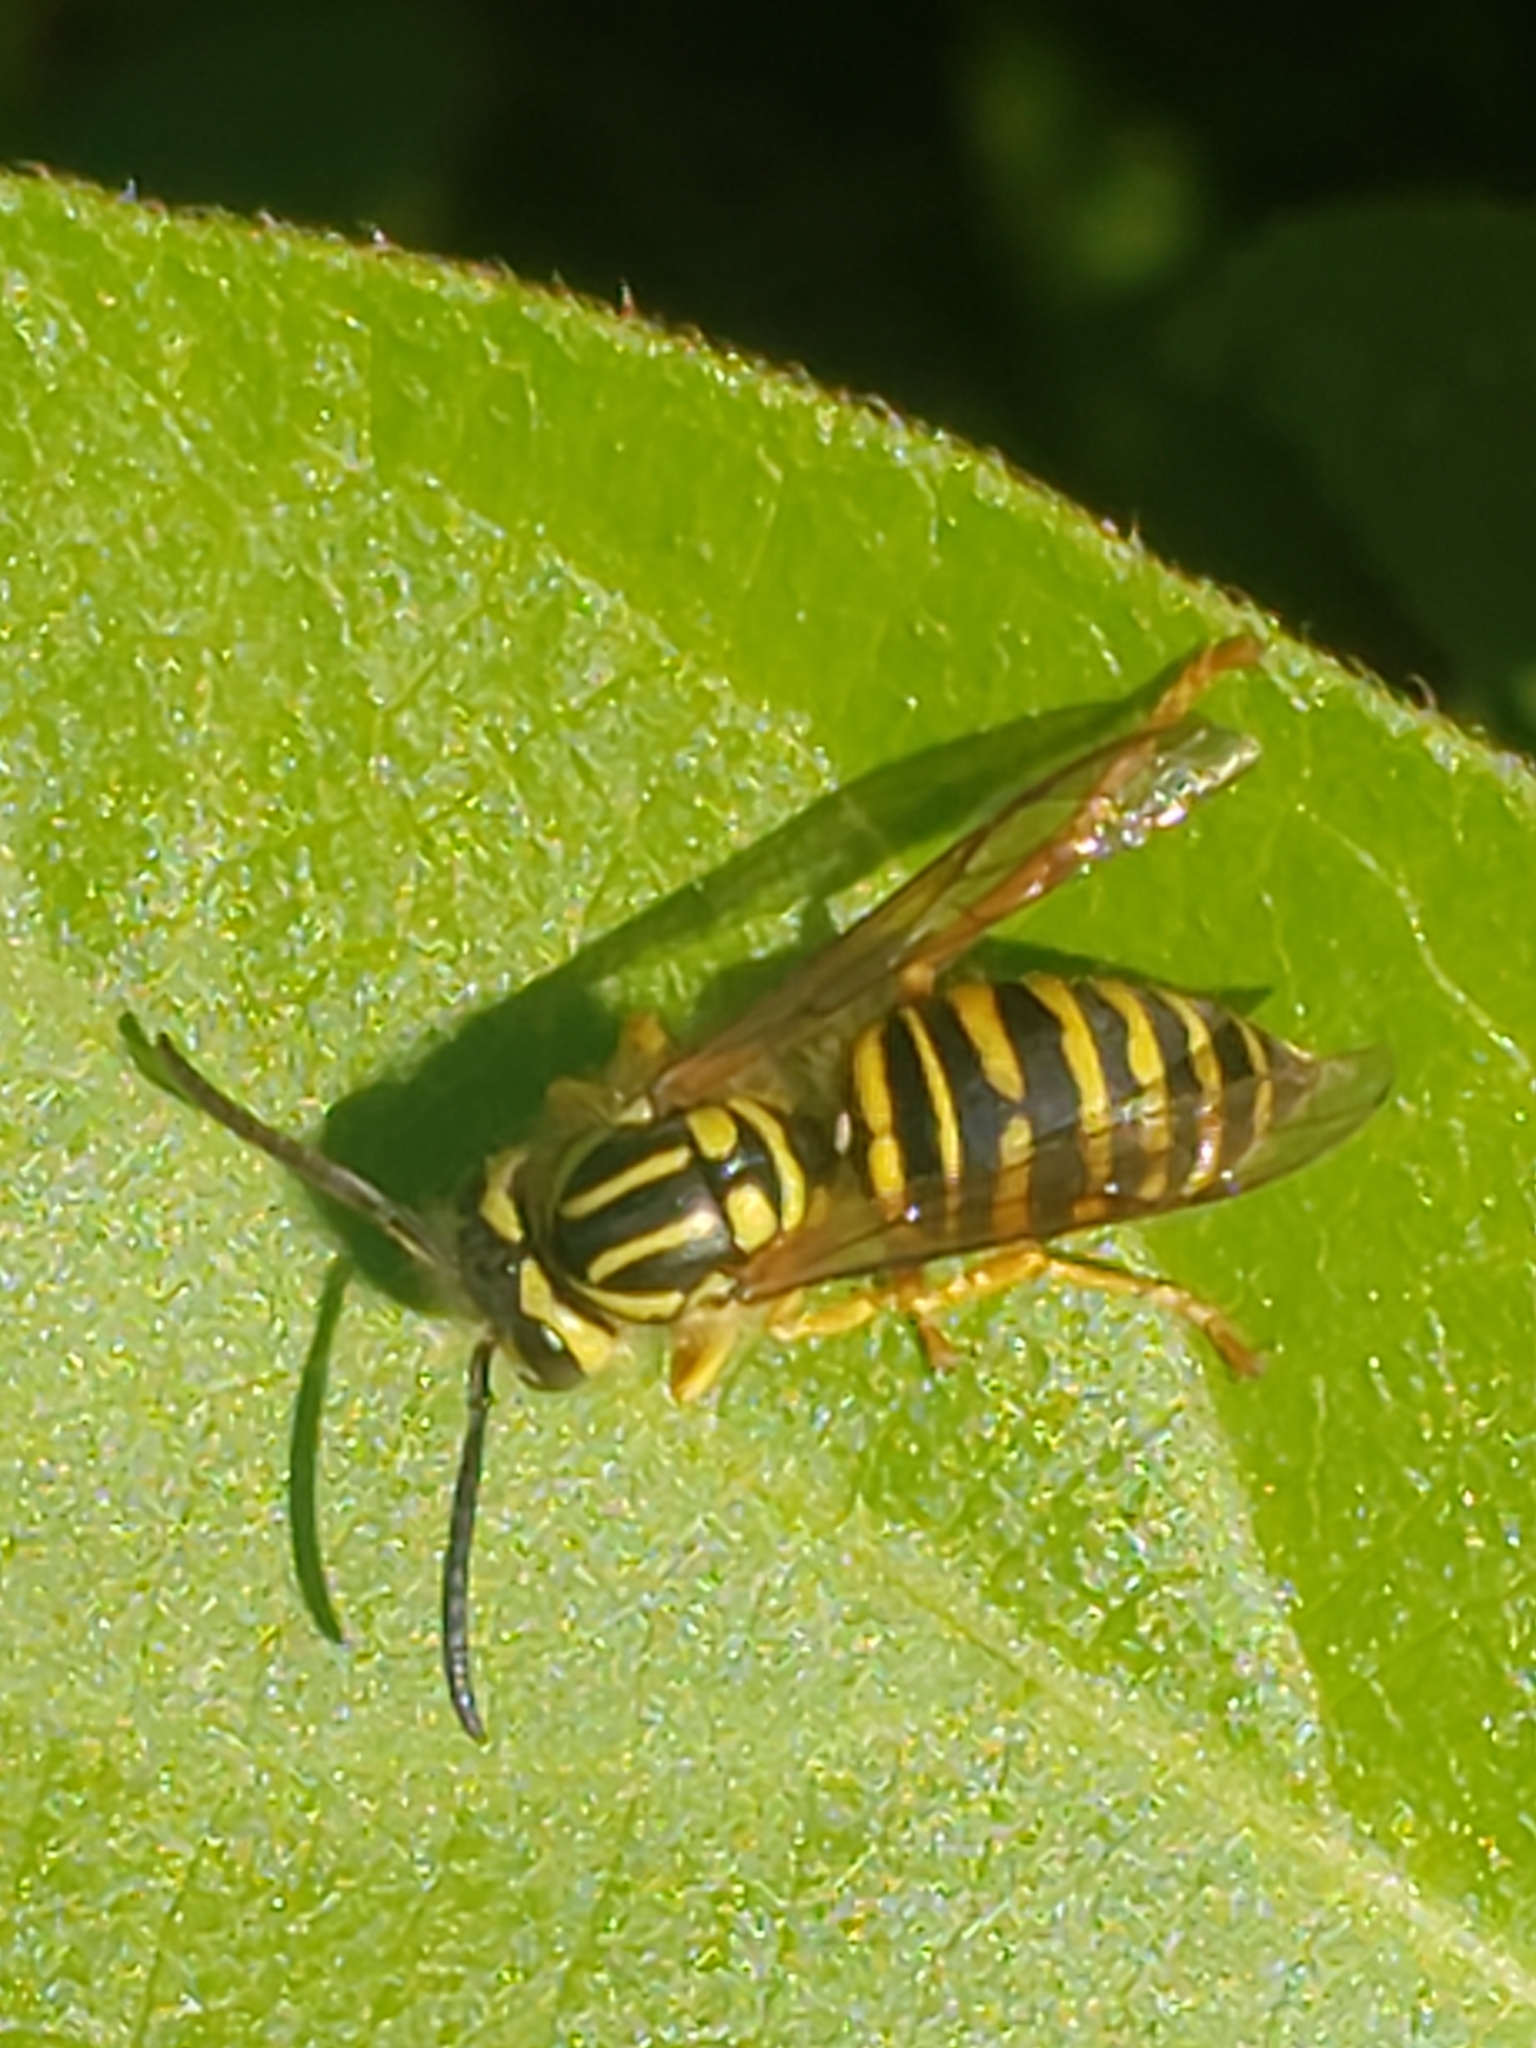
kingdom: Animalia
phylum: Arthropoda
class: Insecta
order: Hymenoptera
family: Vespidae
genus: Vespula
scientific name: Vespula squamosa
